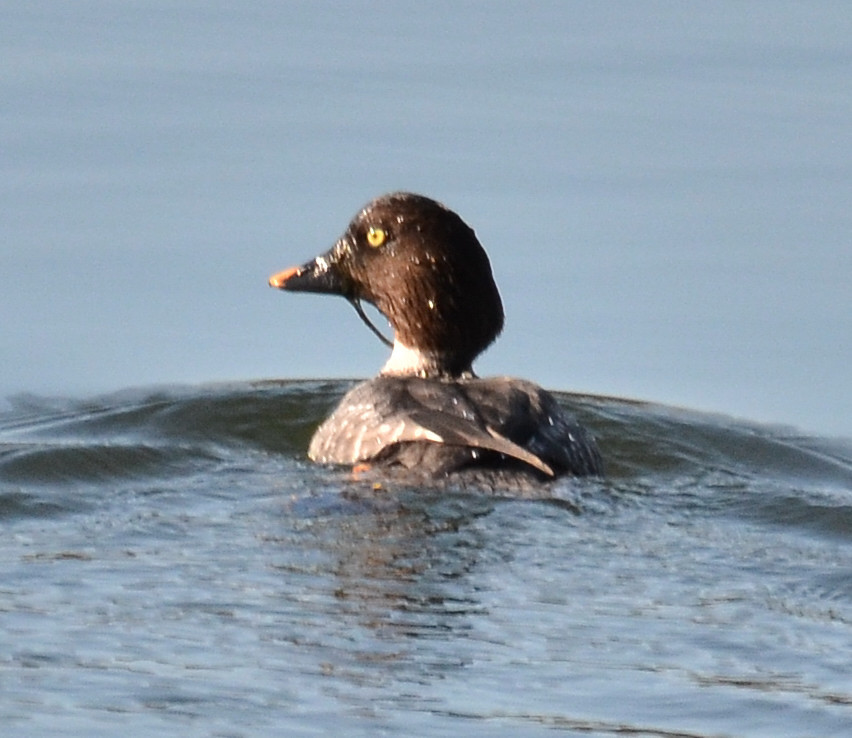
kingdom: Animalia
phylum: Chordata
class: Aves
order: Anseriformes
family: Anatidae
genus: Bucephala
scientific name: Bucephala clangula
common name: Common goldeneye
